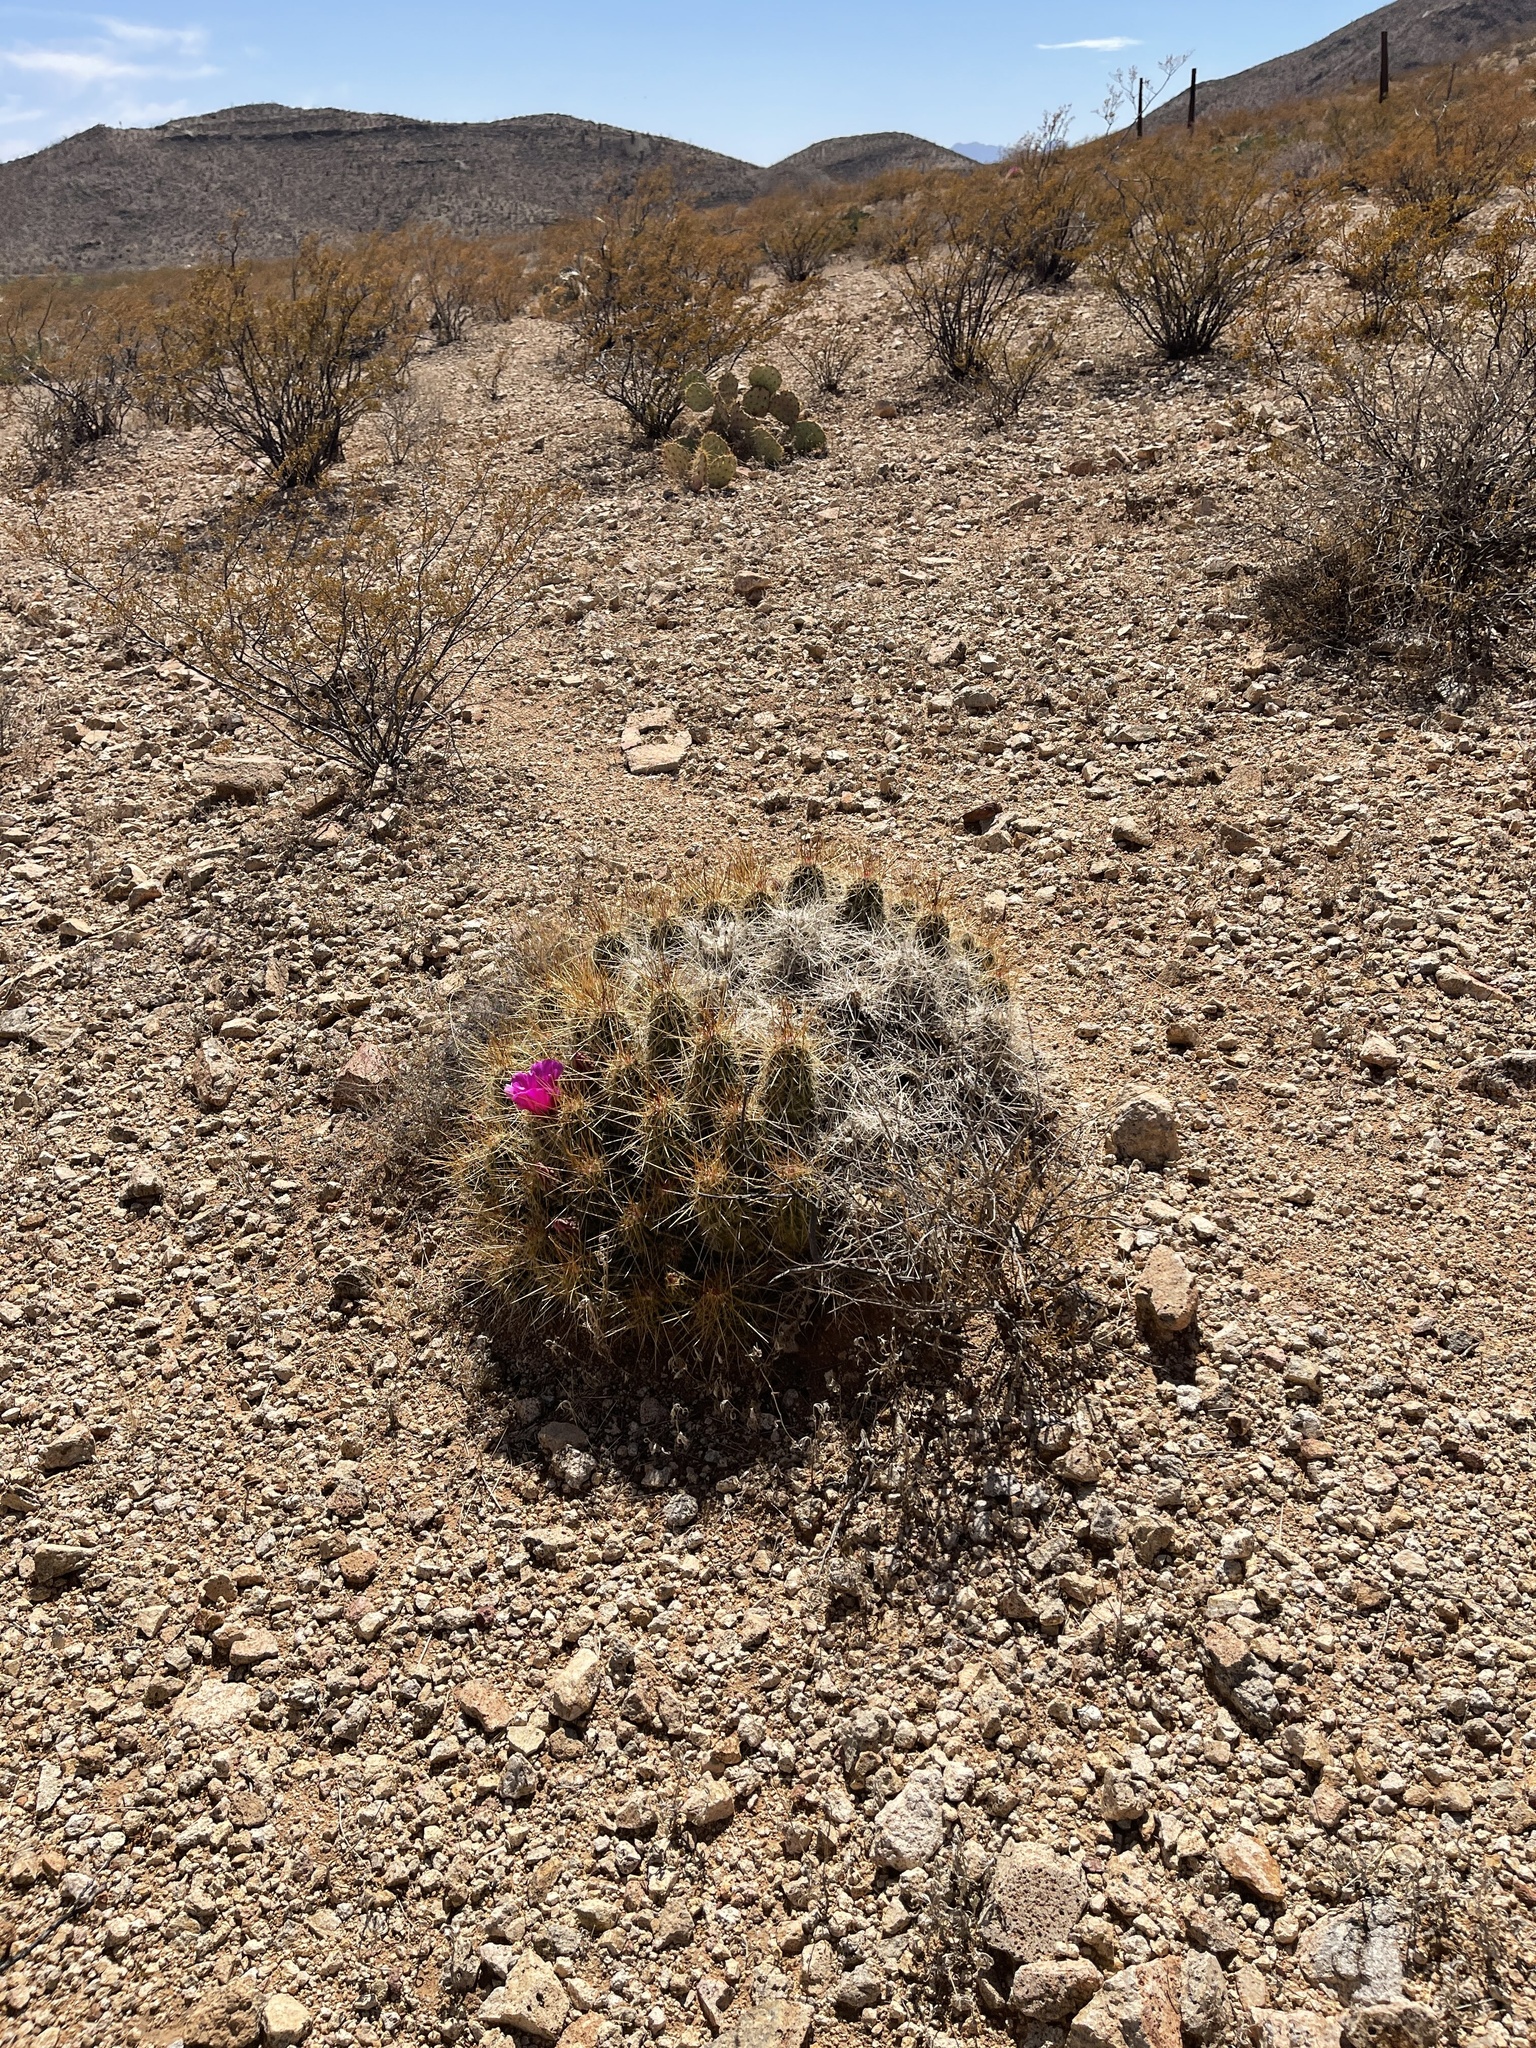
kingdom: Plantae
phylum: Tracheophyta
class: Magnoliopsida
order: Caryophyllales
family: Cactaceae
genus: Echinocereus
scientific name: Echinocereus stramineus
